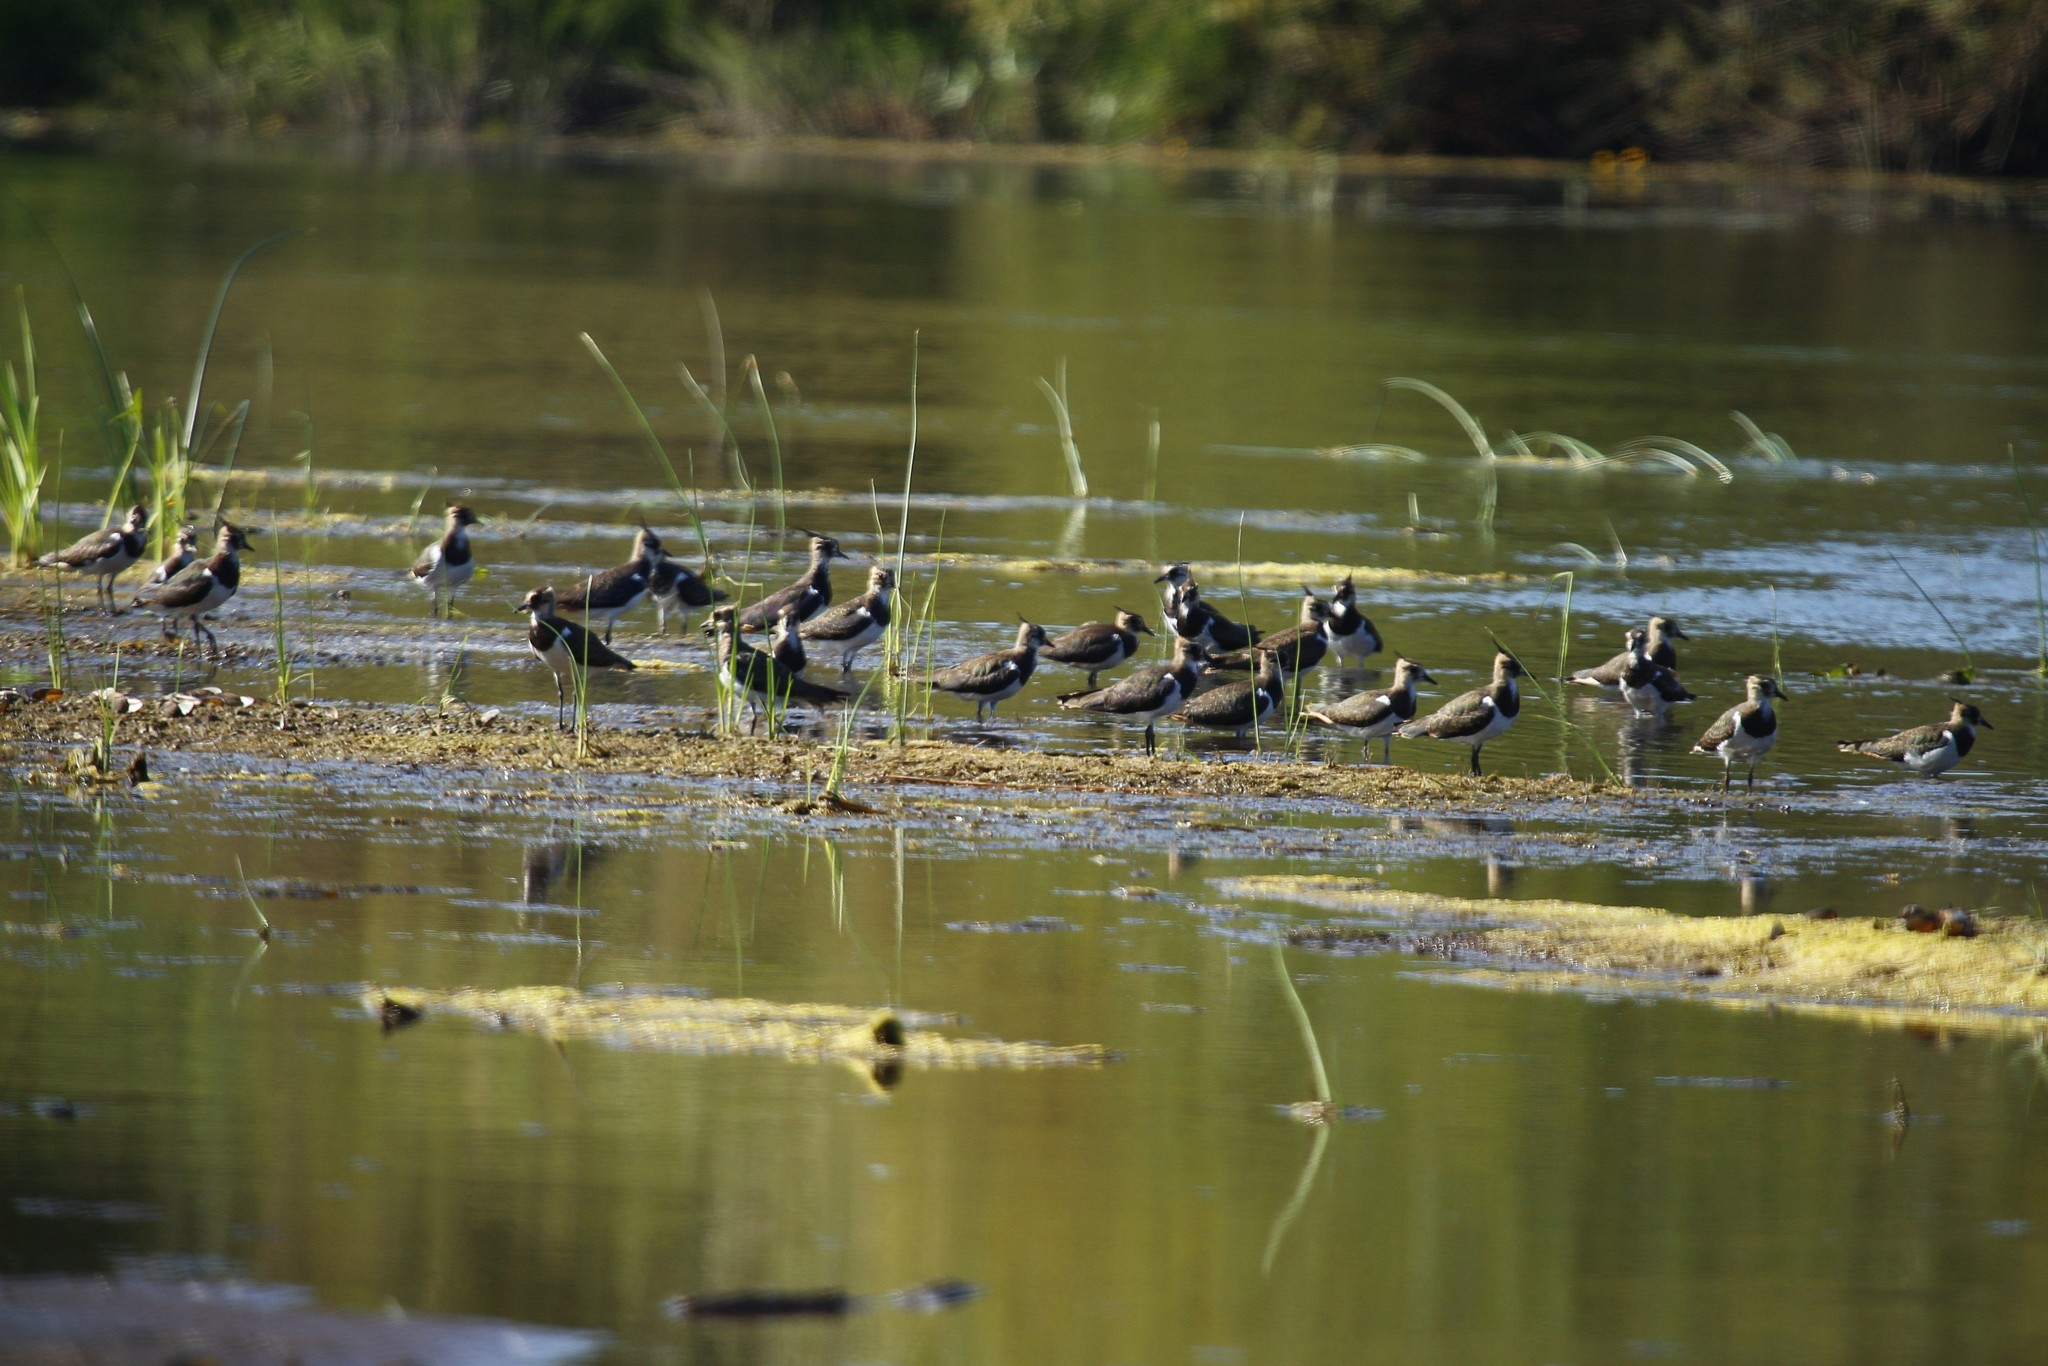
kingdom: Animalia
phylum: Chordata
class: Aves
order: Charadriiformes
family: Charadriidae
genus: Vanellus
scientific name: Vanellus vanellus
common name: Northern lapwing
